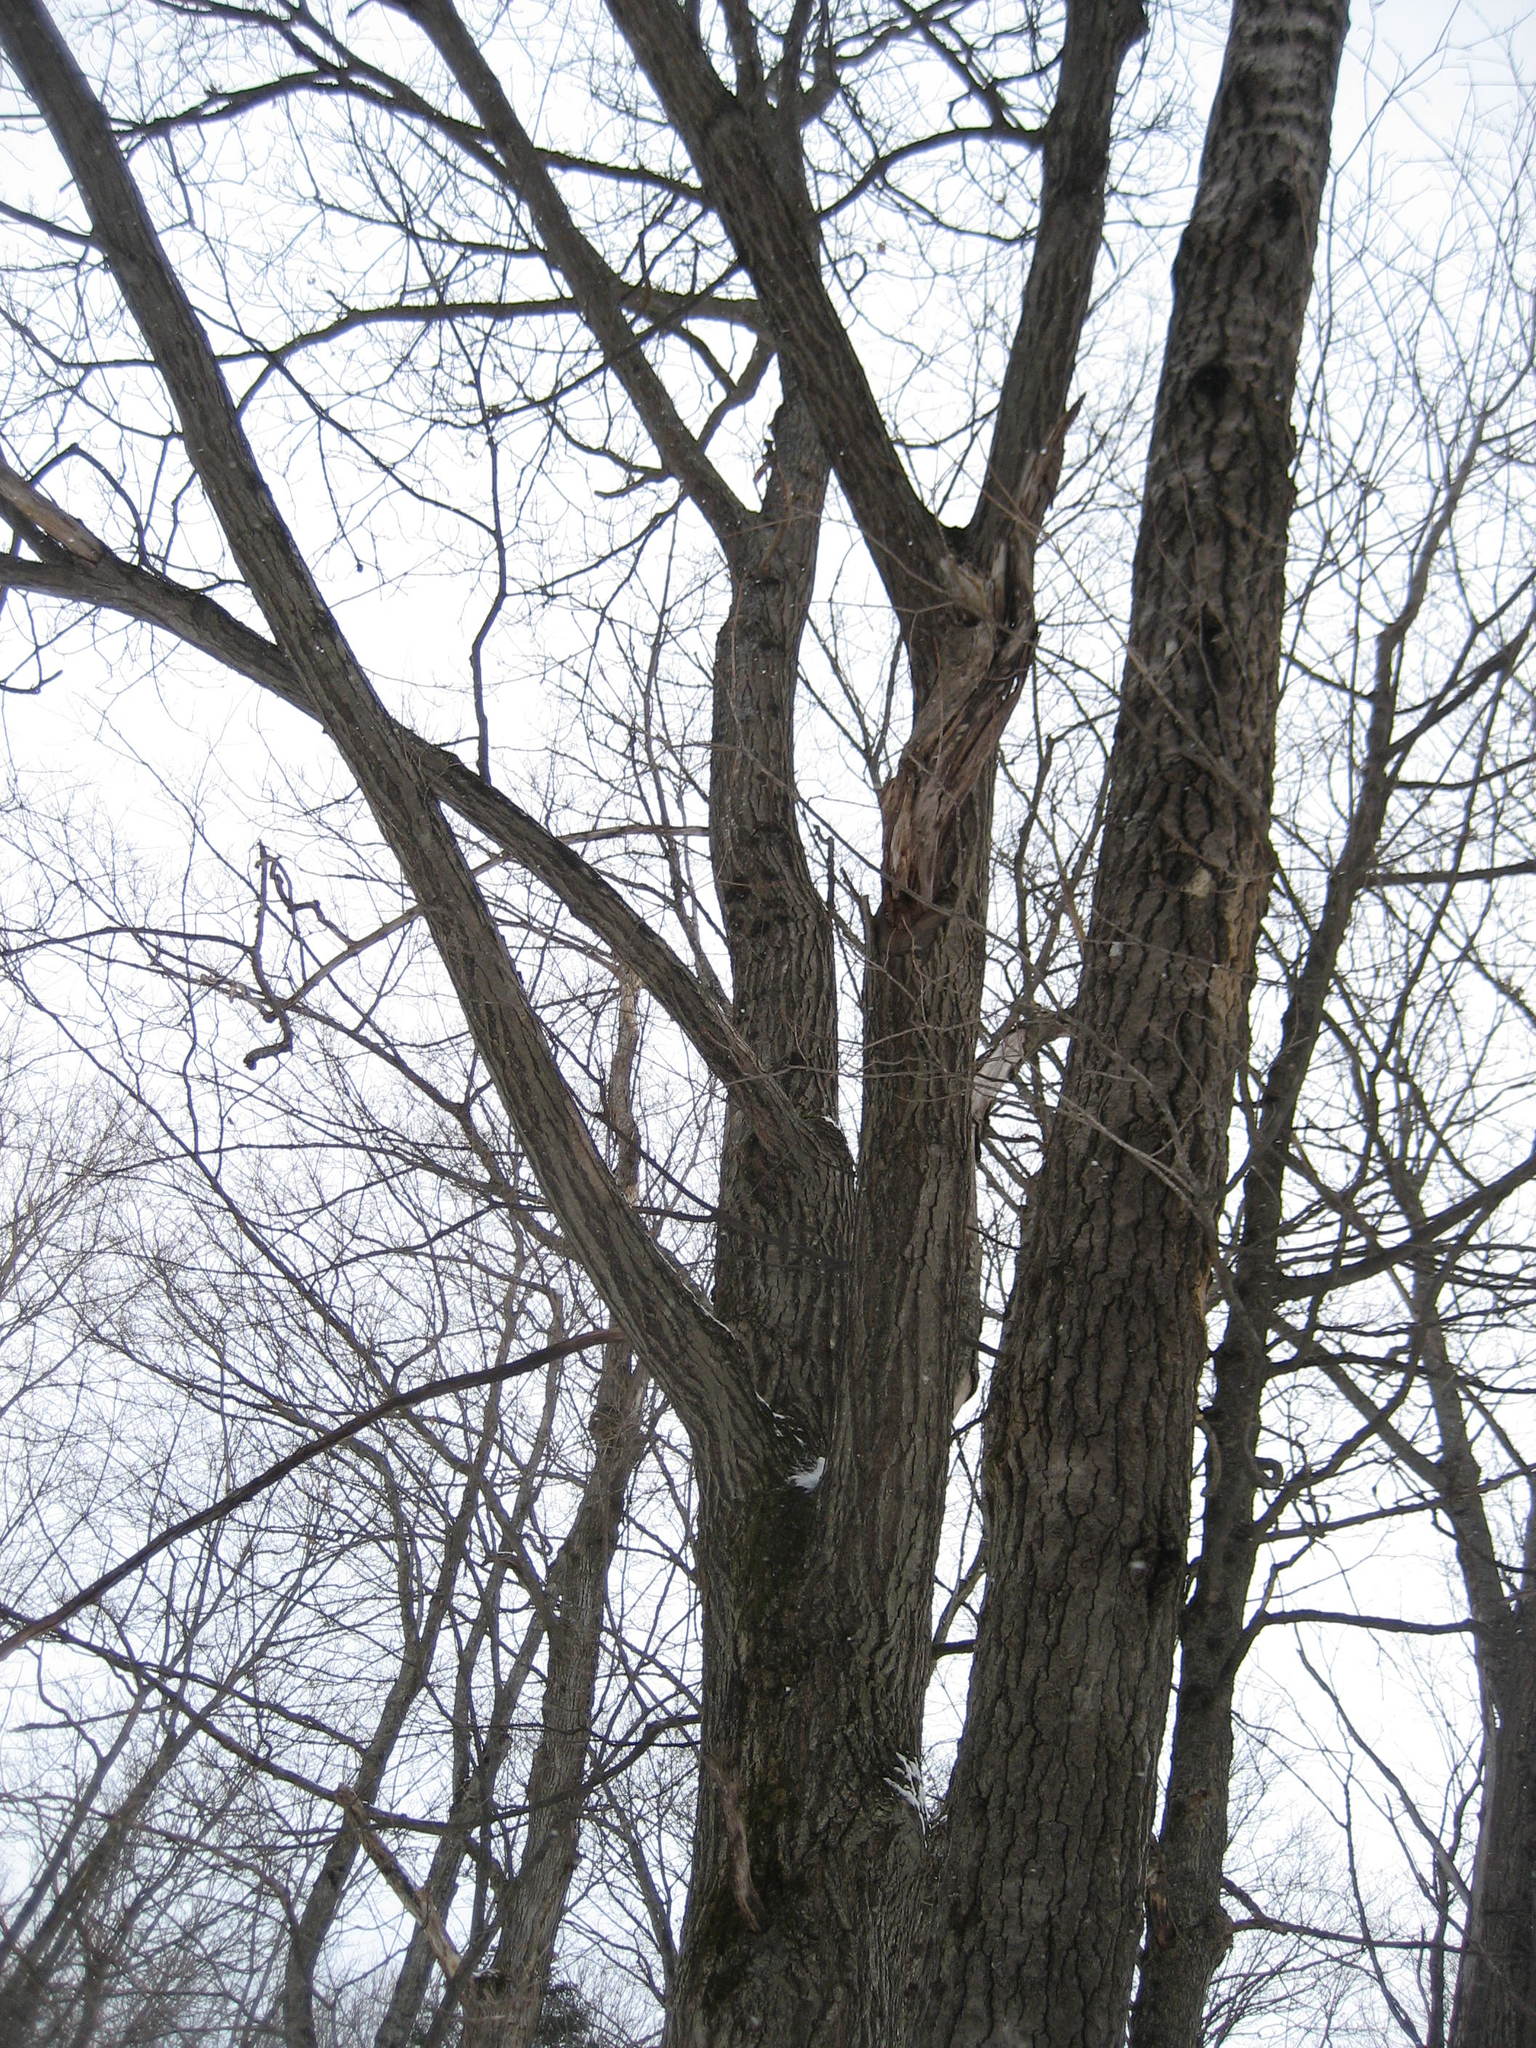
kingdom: Plantae
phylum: Tracheophyta
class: Magnoliopsida
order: Fagales
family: Fagaceae
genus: Quercus
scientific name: Quercus rubra
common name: Red oak
